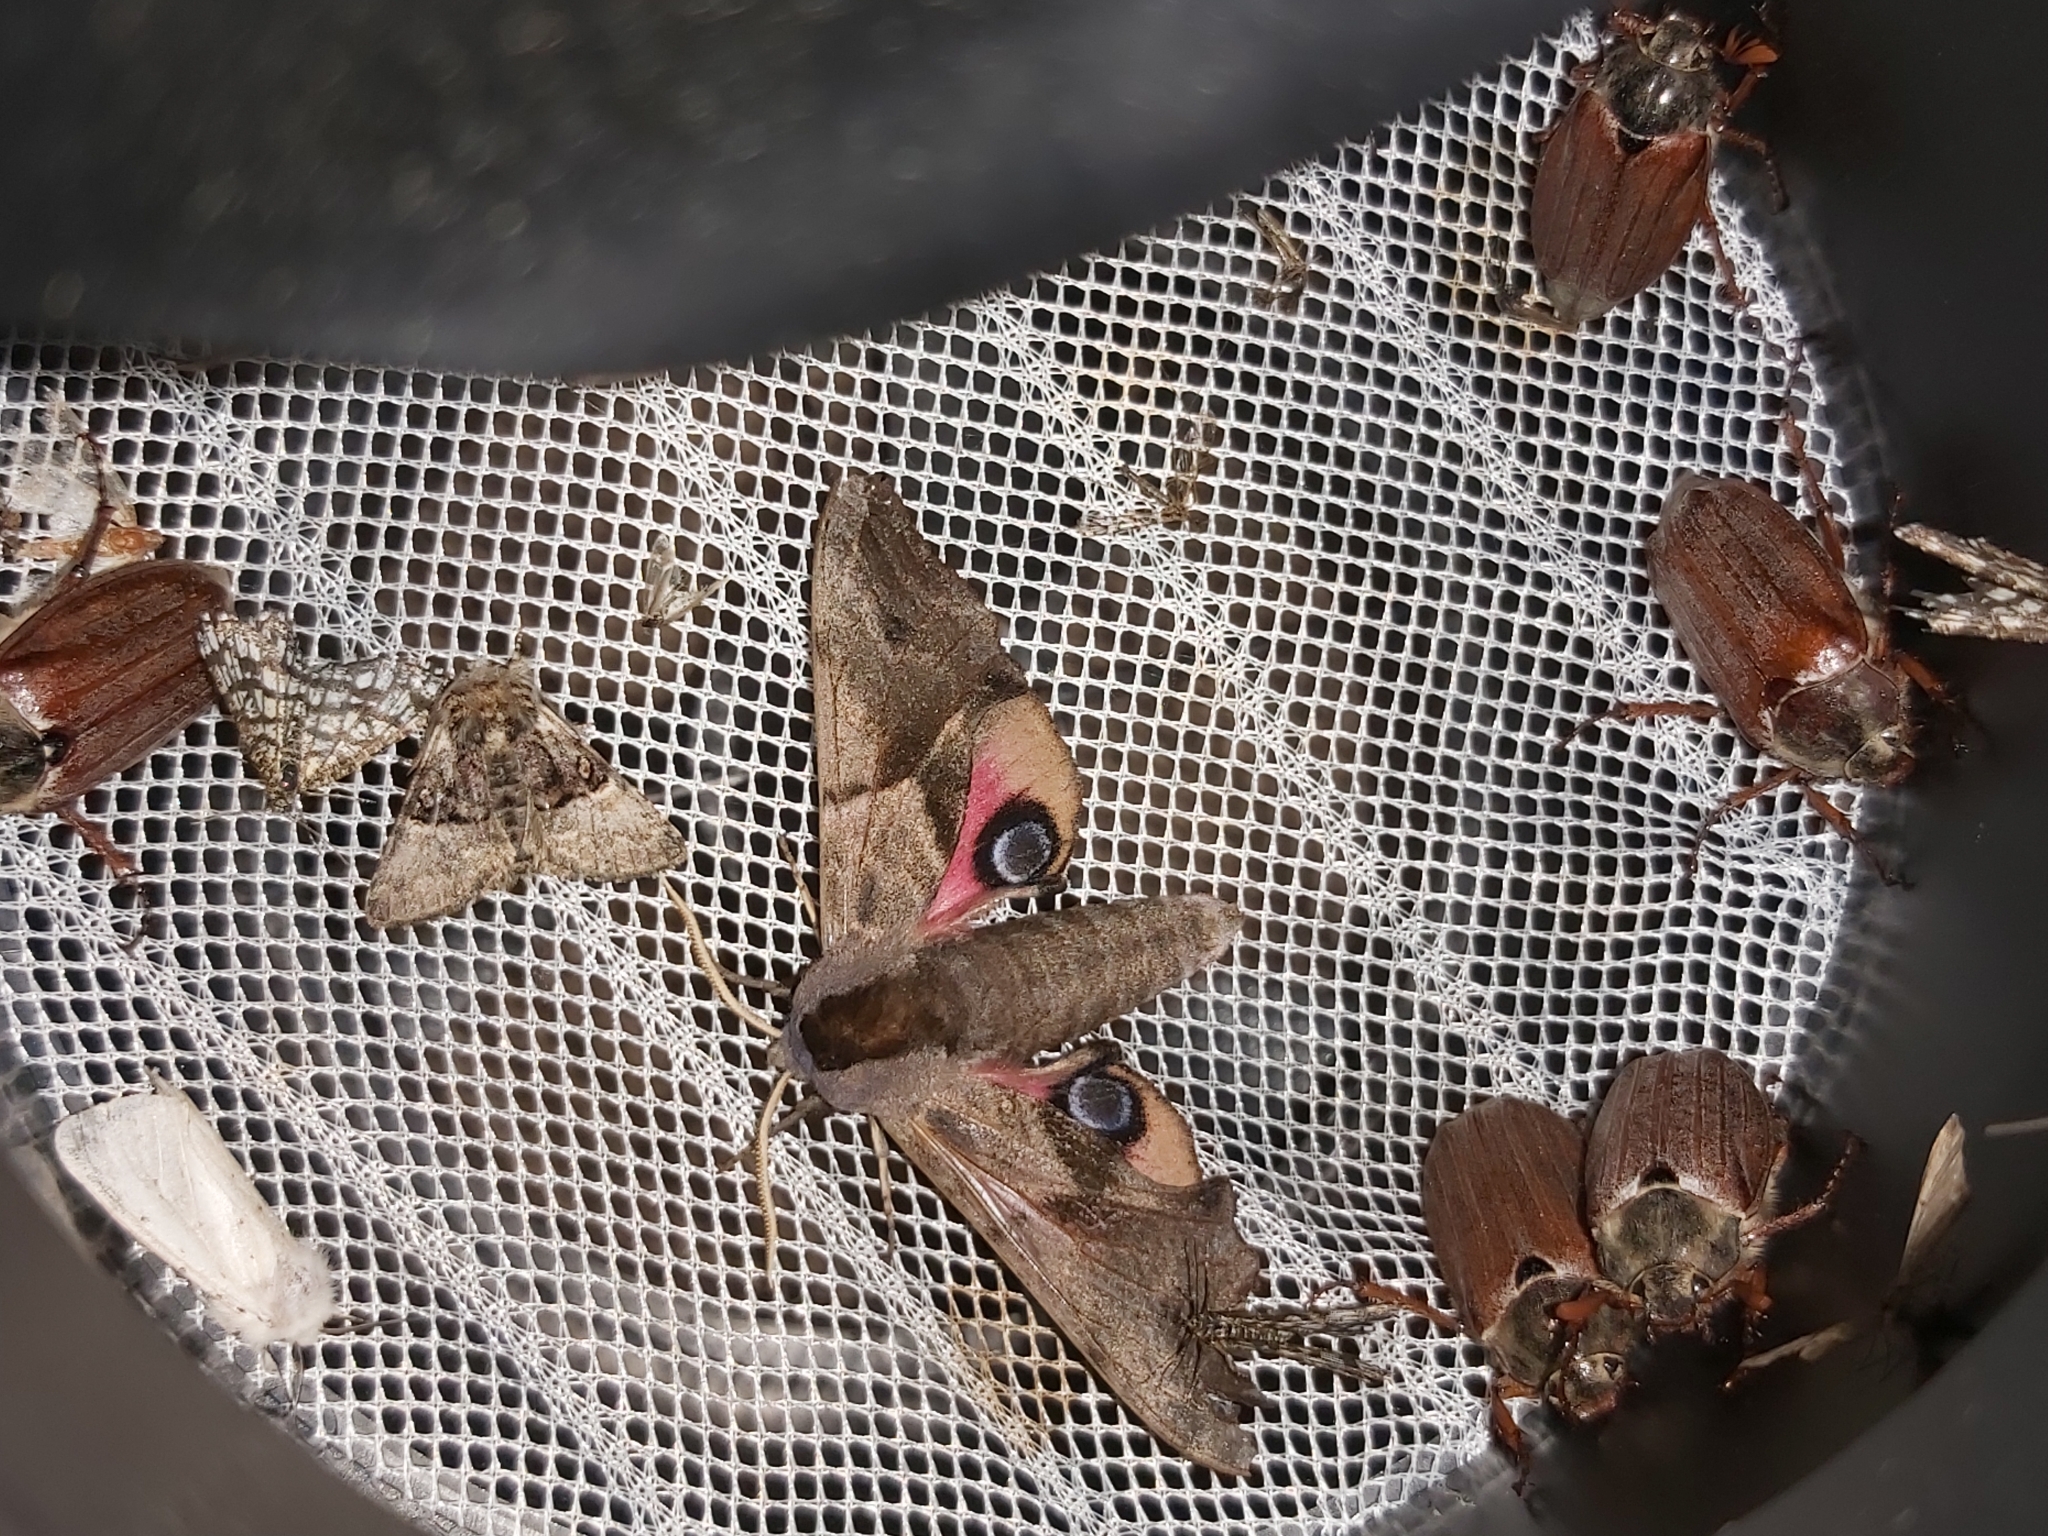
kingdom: Animalia
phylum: Arthropoda
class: Insecta
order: Lepidoptera
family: Sphingidae
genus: Smerinthus
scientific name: Smerinthus ocellata
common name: Eyed hawk-moth
